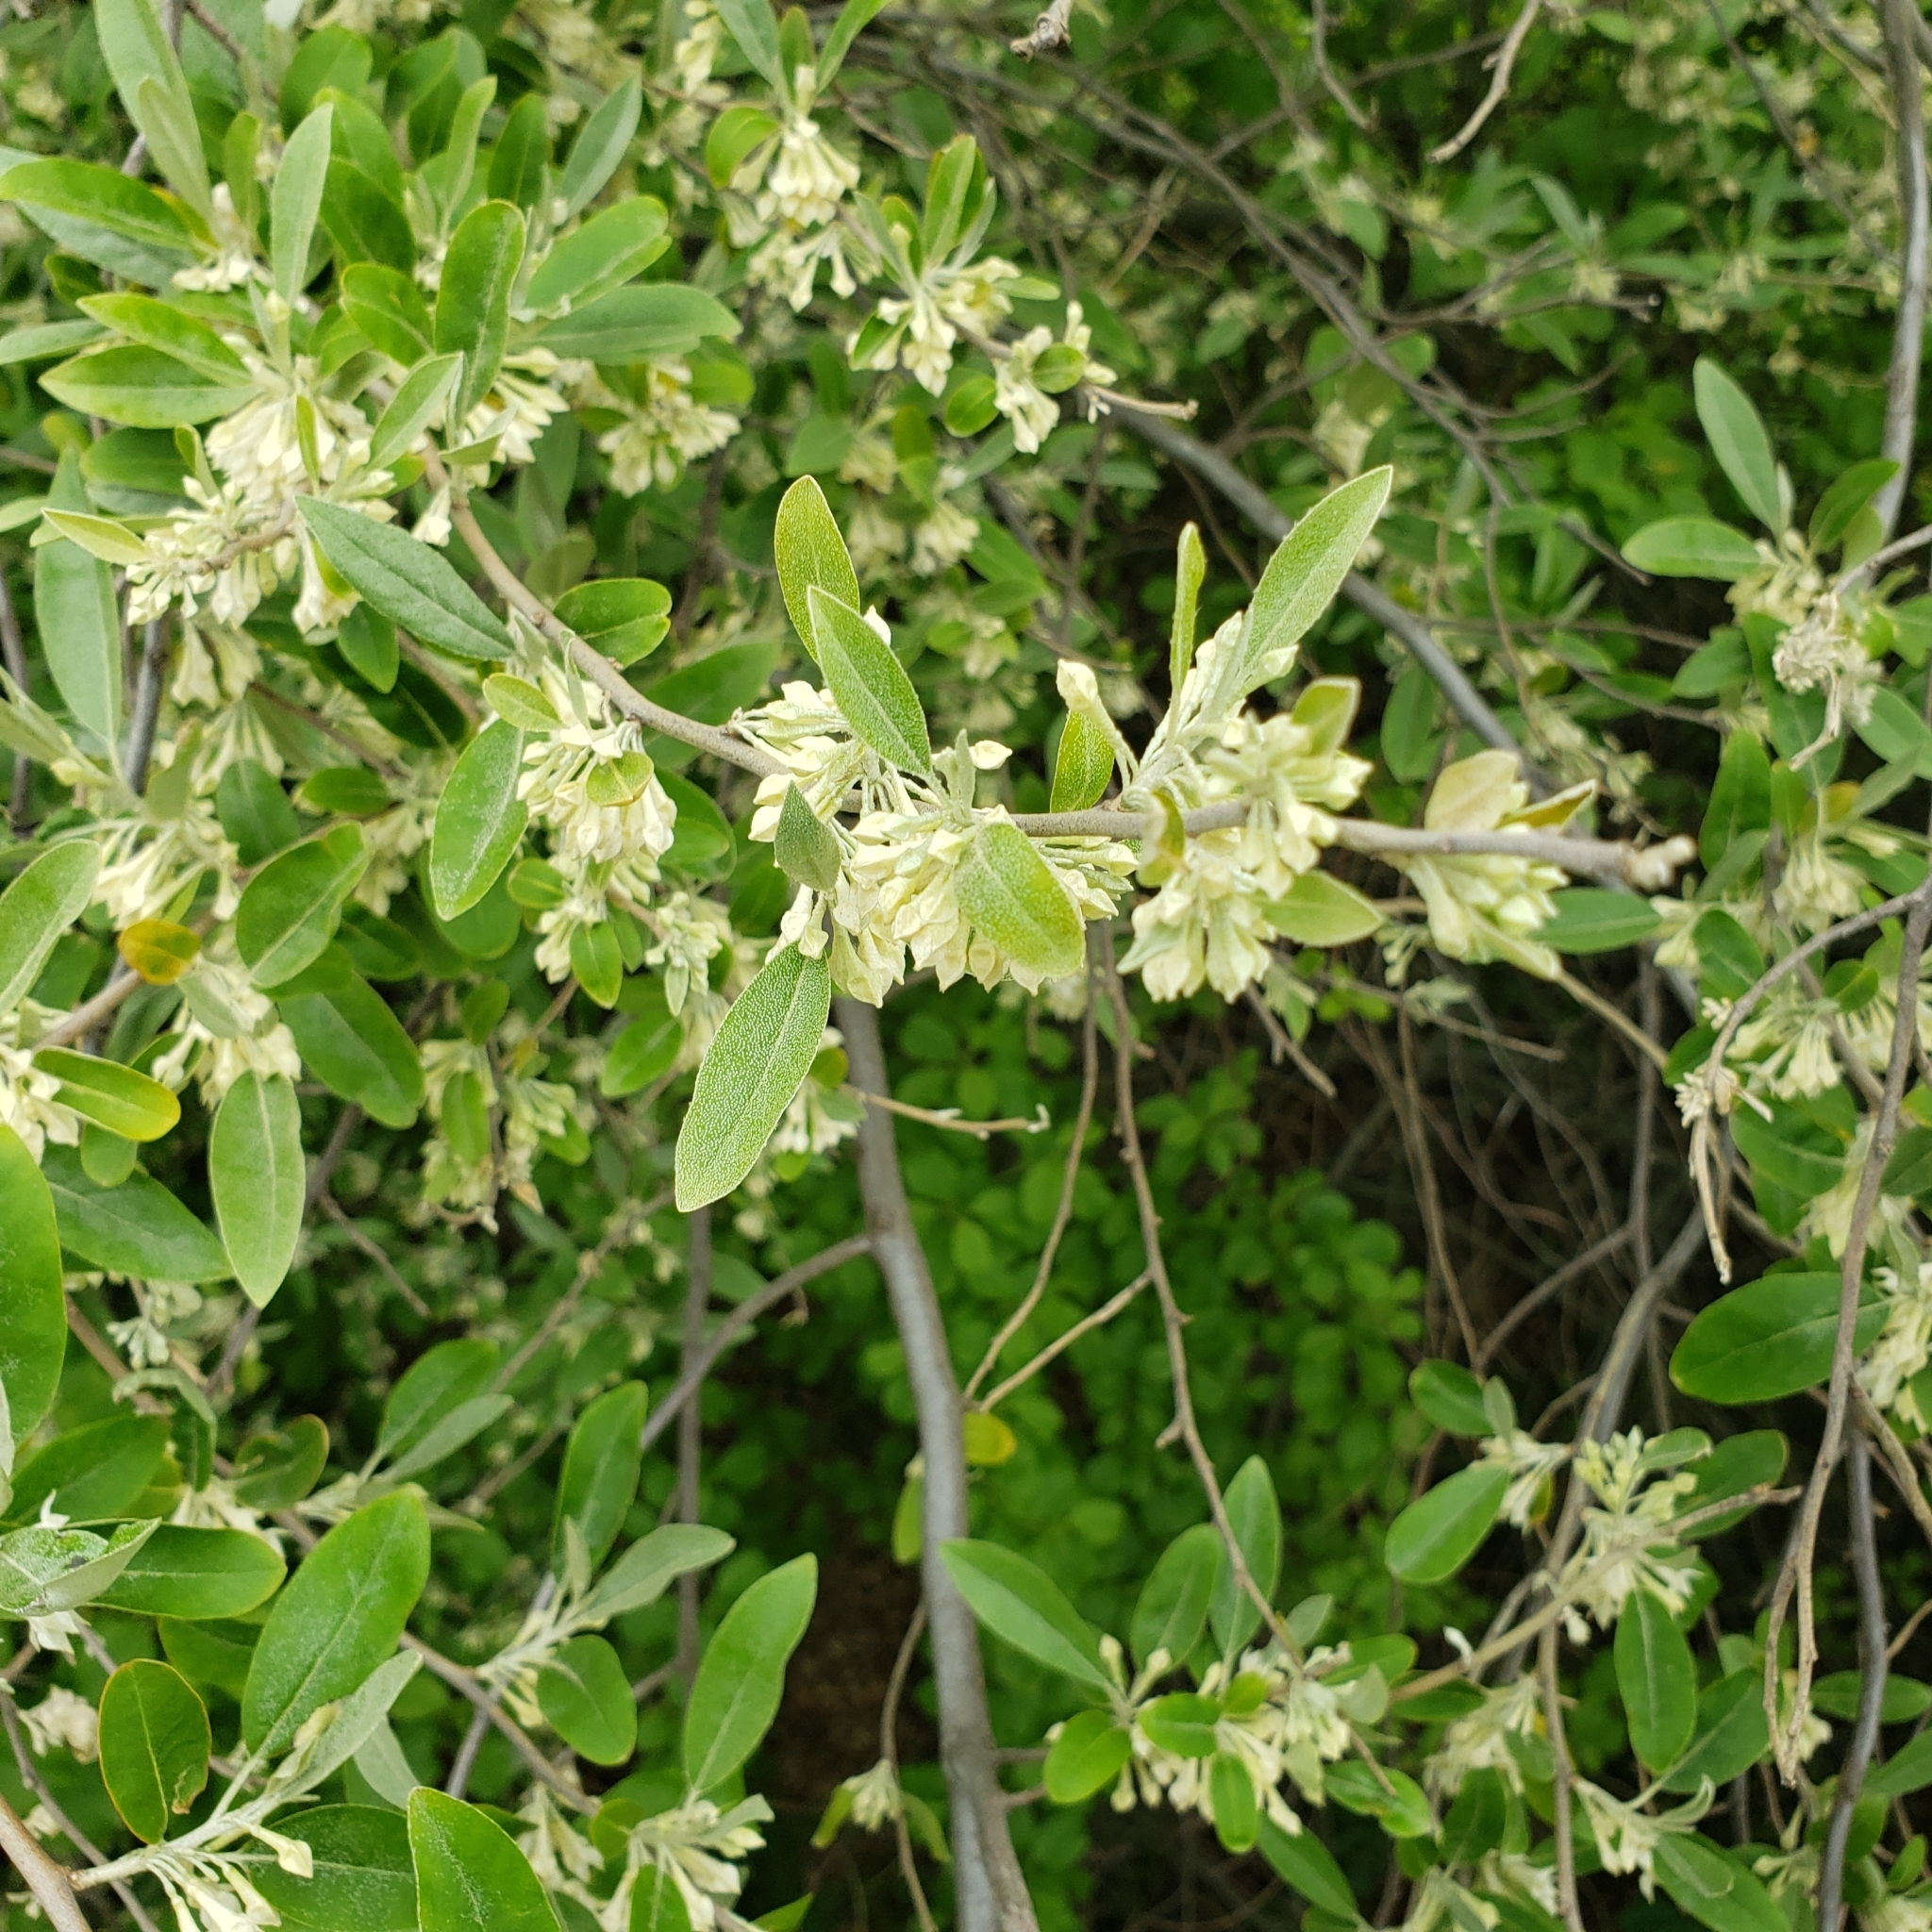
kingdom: Plantae
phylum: Tracheophyta
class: Magnoliopsida
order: Rosales
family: Elaeagnaceae
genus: Elaeagnus
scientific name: Elaeagnus umbellata
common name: Autumn olive
